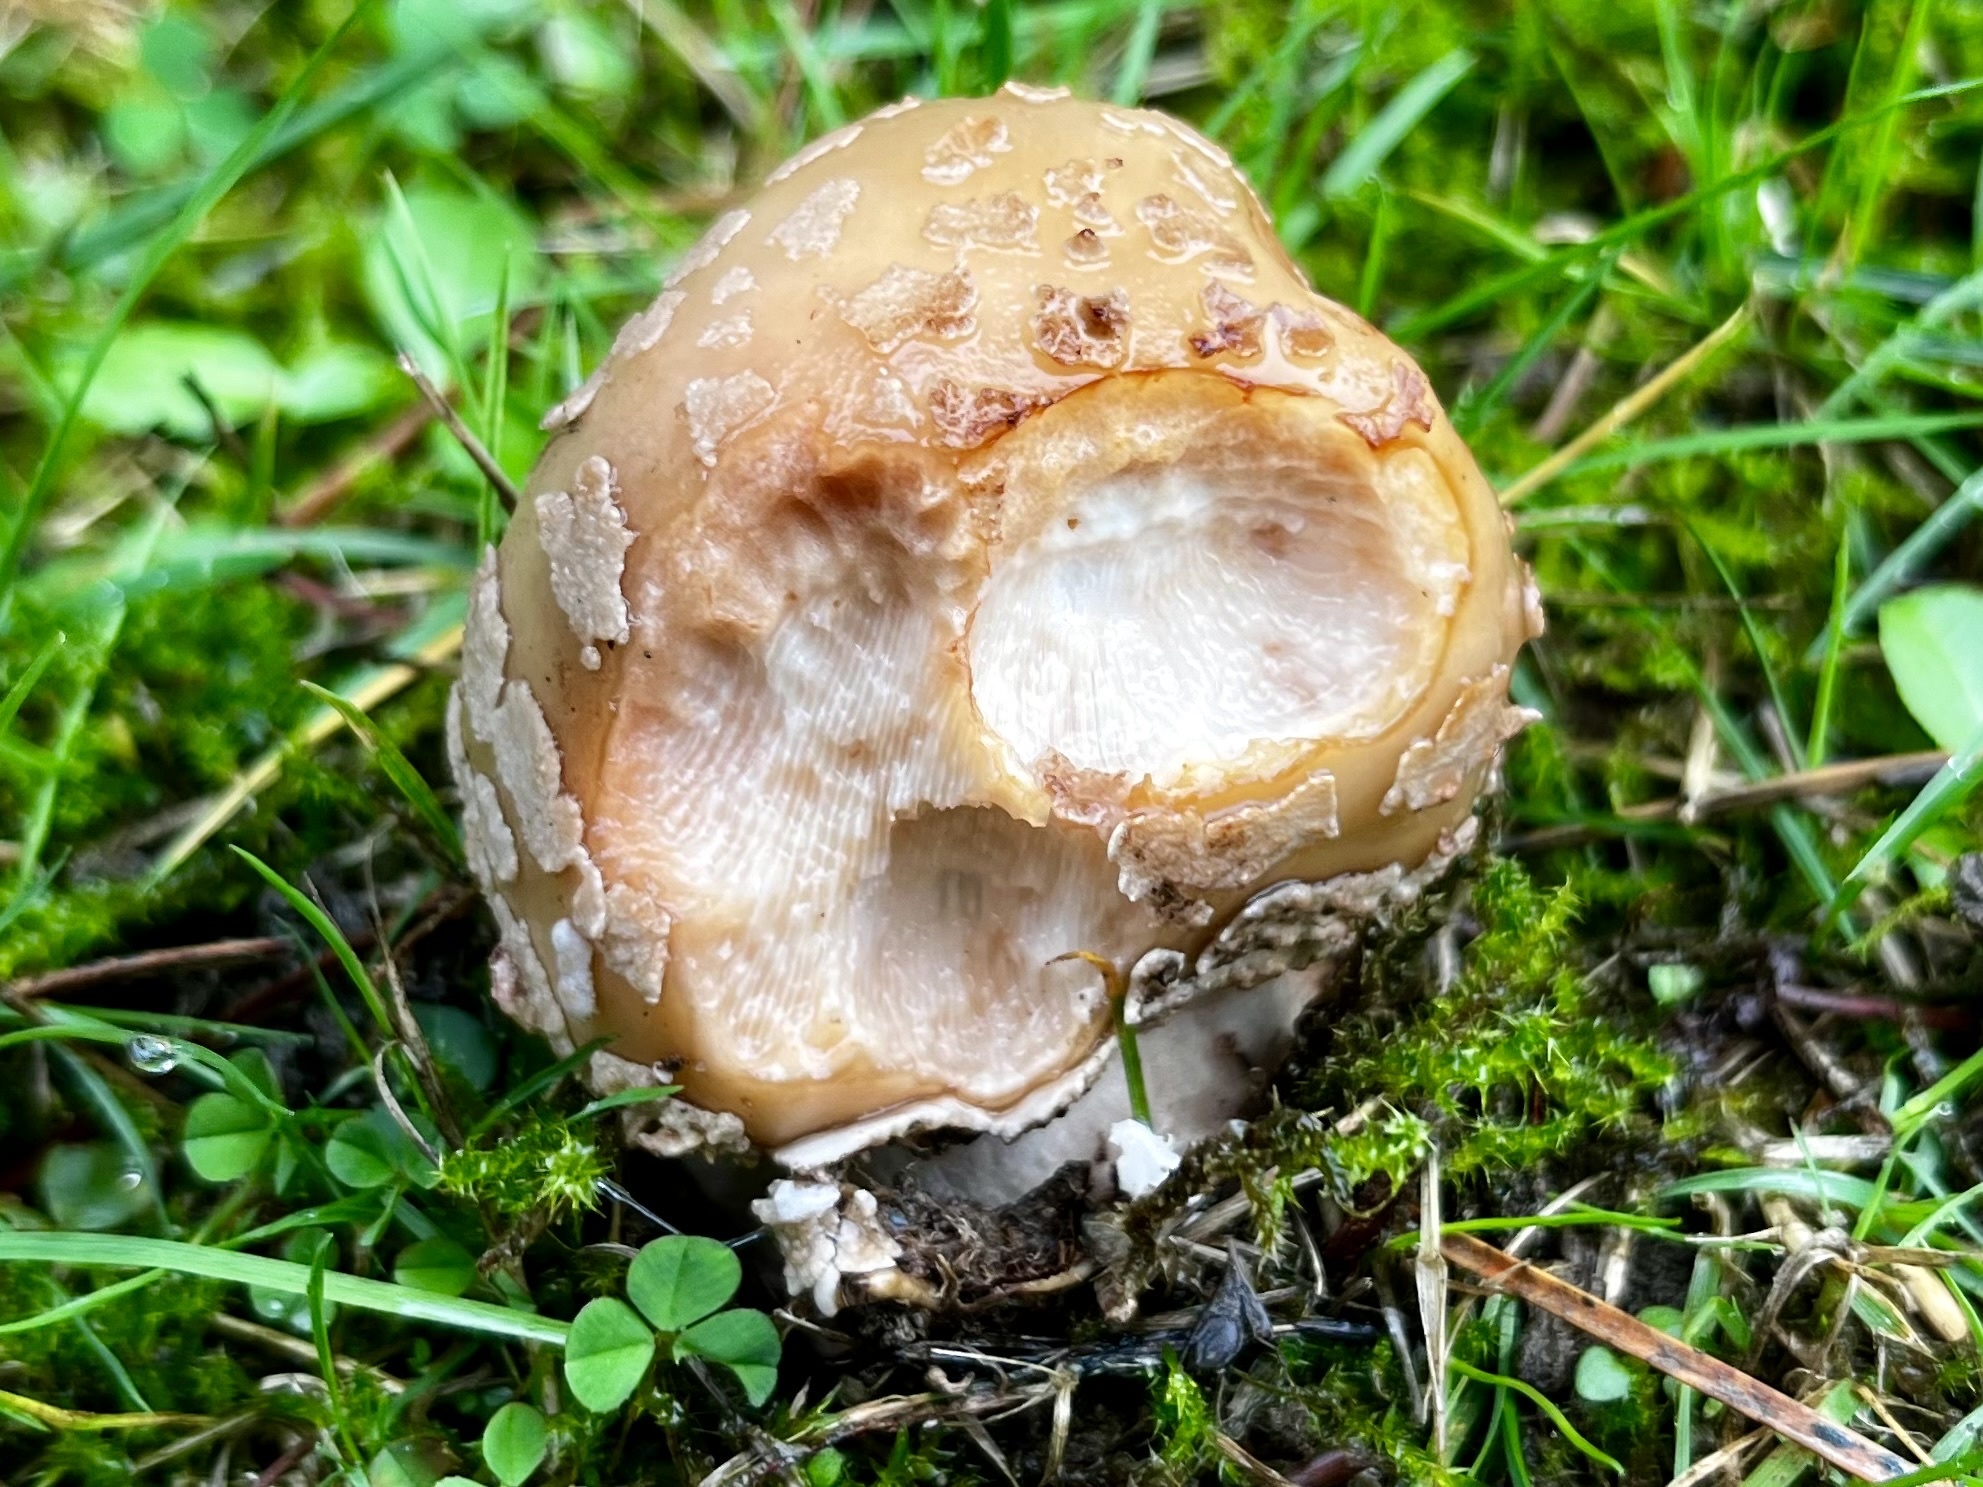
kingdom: Fungi
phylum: Basidiomycota
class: Agaricomycetes
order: Agaricales
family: Amanitaceae
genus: Amanita
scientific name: Amanita rubescens
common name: Blusher
